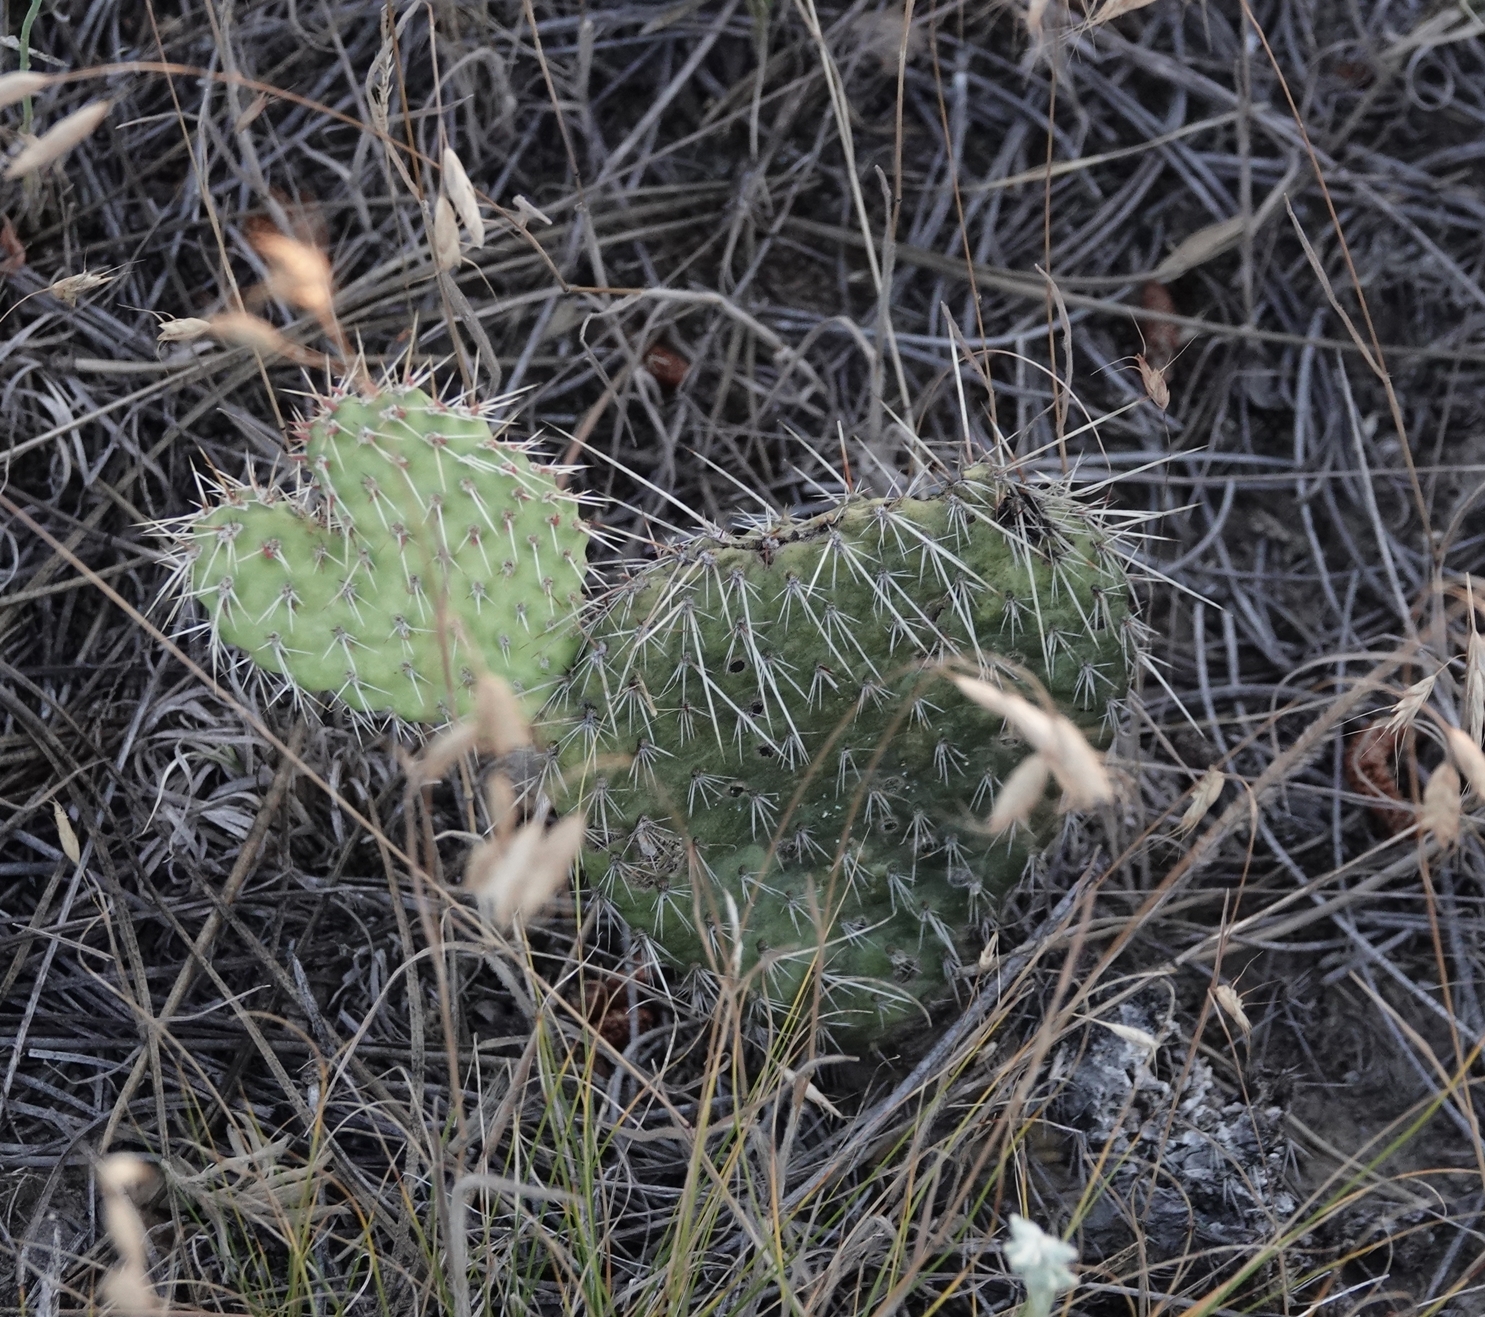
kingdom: Plantae
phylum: Tracheophyta
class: Magnoliopsida
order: Caryophyllales
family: Cactaceae
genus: Opuntia
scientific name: Opuntia polyacantha
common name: Plains prickly-pear
